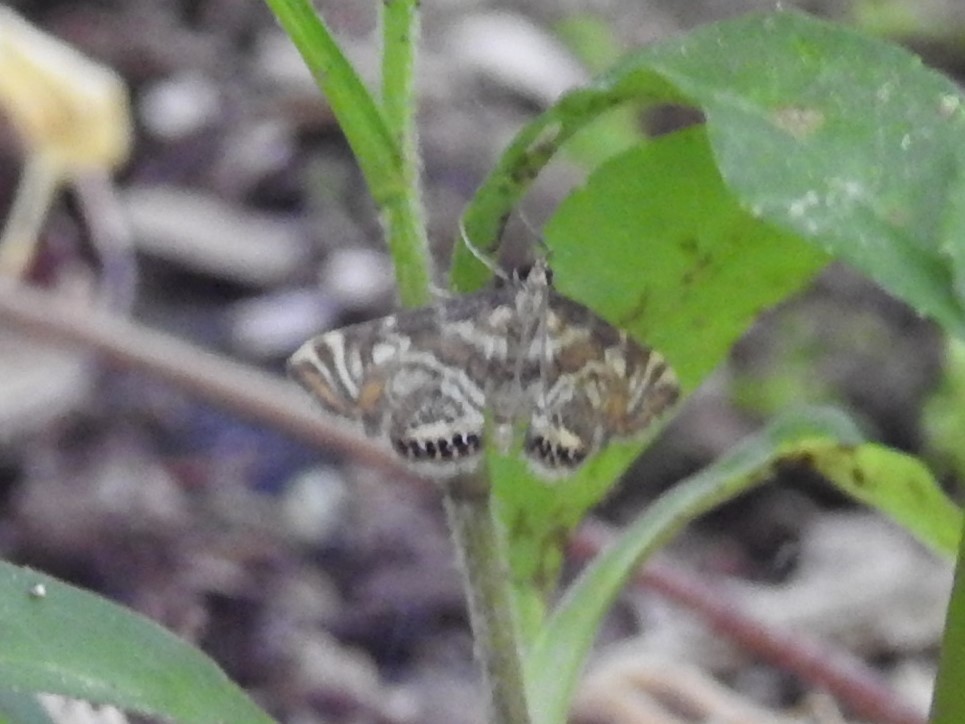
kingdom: Animalia
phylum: Arthropoda
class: Insecta
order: Lepidoptera
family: Crambidae
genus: Petrophila
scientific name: Petrophila canadensis
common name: Canadian petrophila
